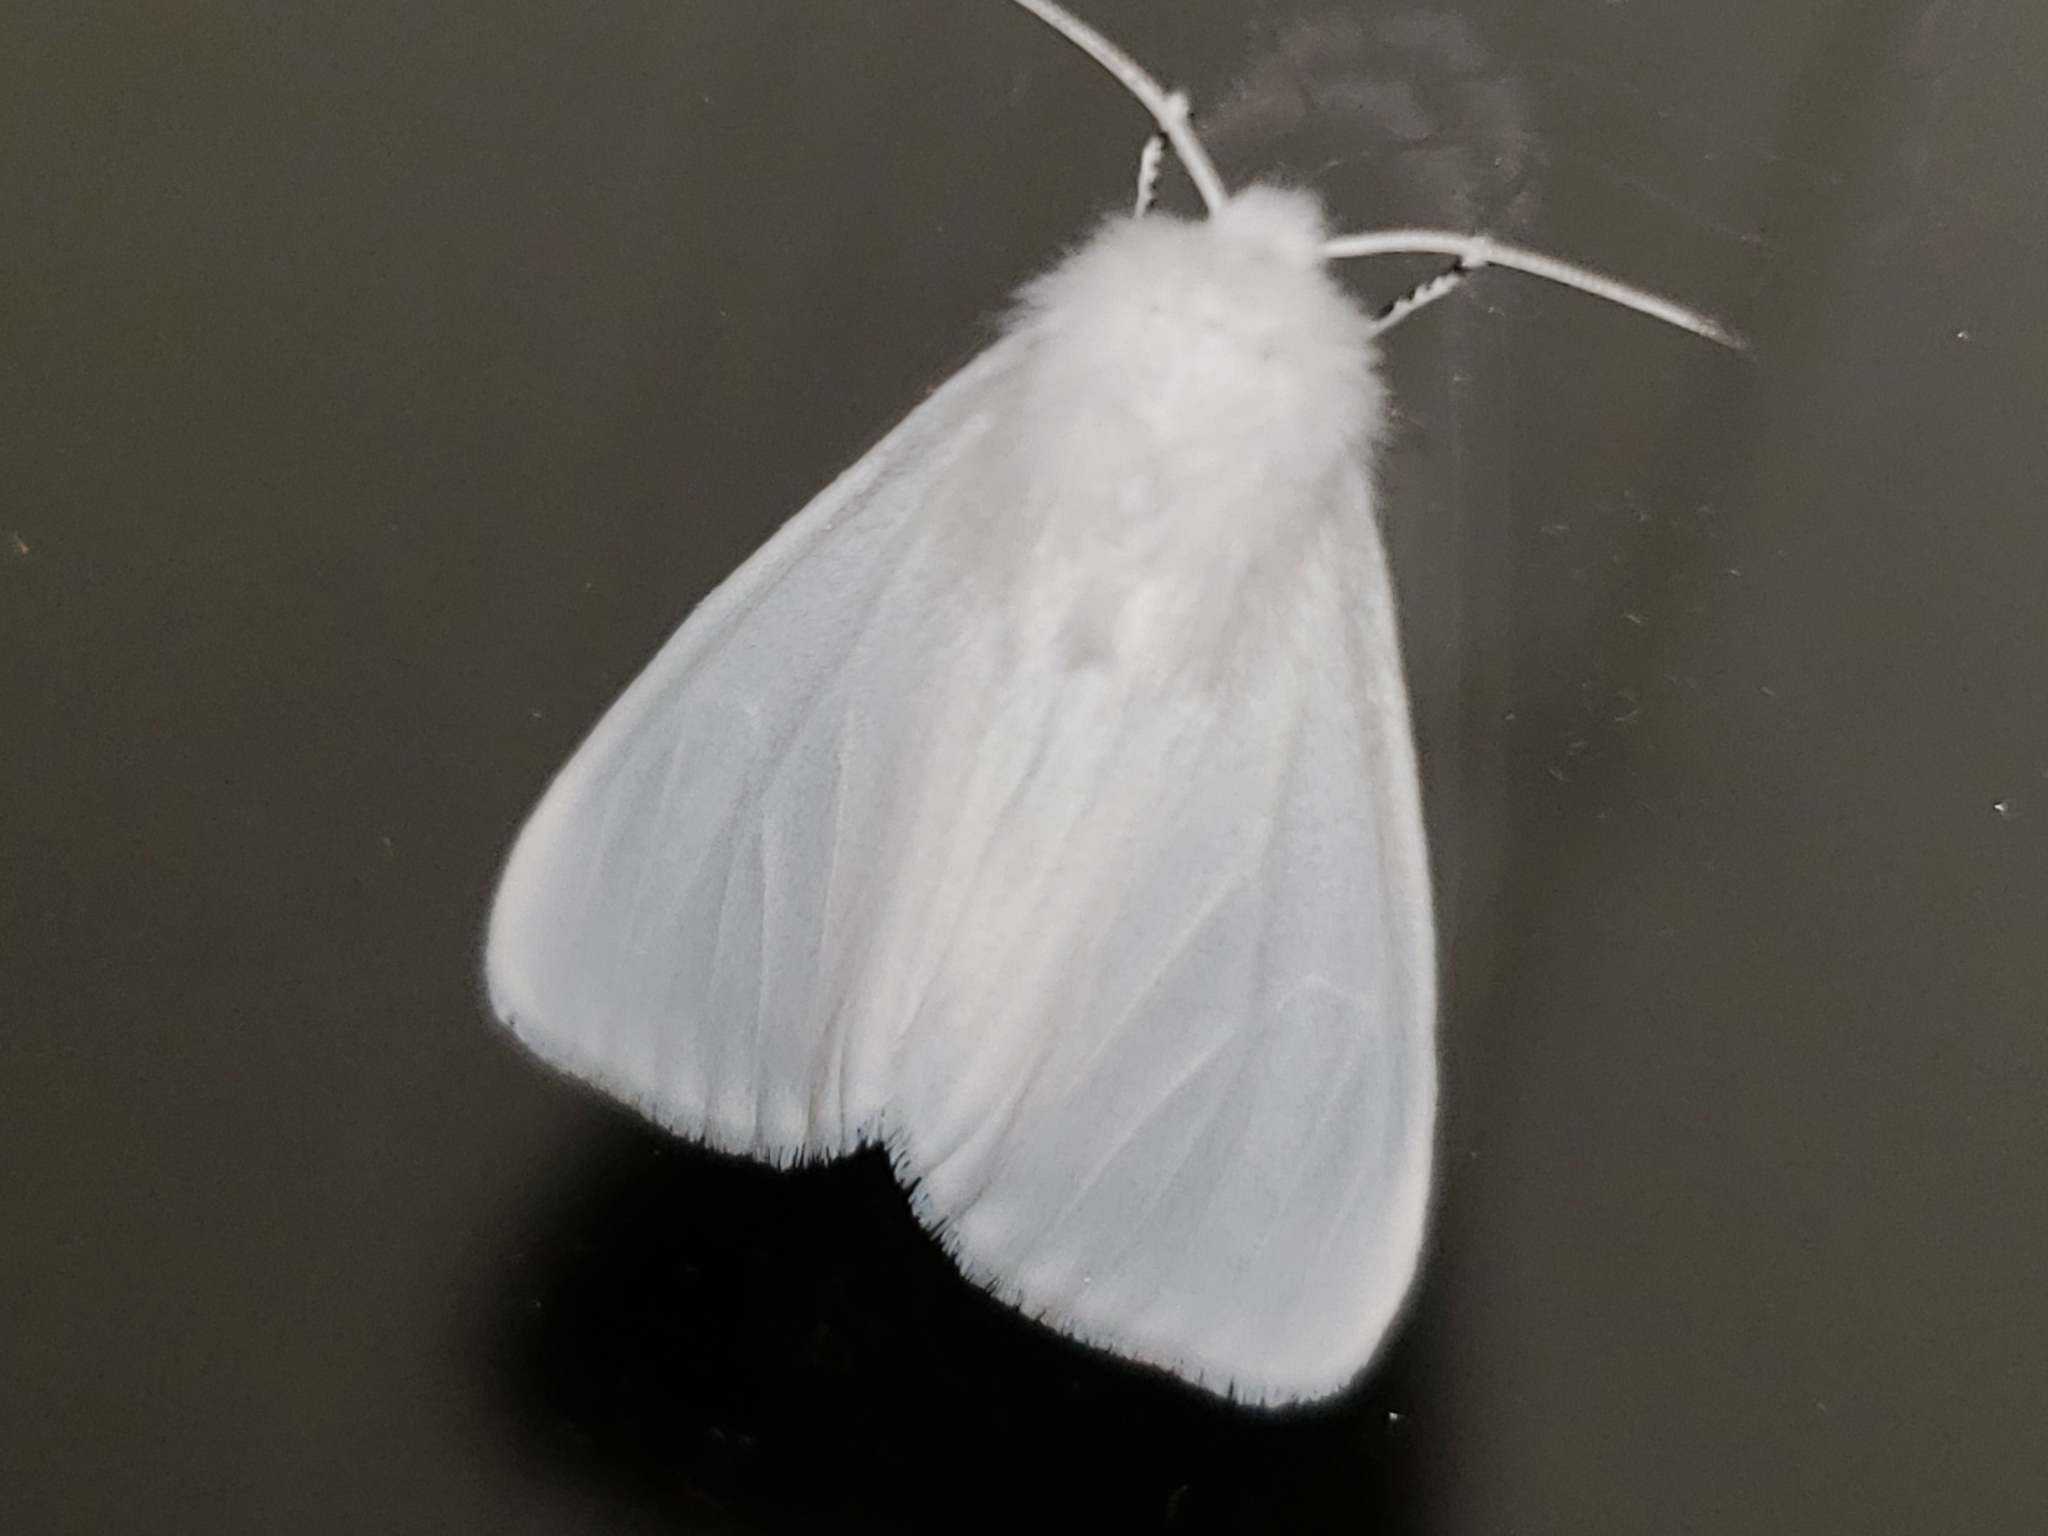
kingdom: Animalia
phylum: Arthropoda
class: Insecta
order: Lepidoptera
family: Erebidae
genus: Hyphantria
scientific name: Hyphantria cunea
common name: American white moth
